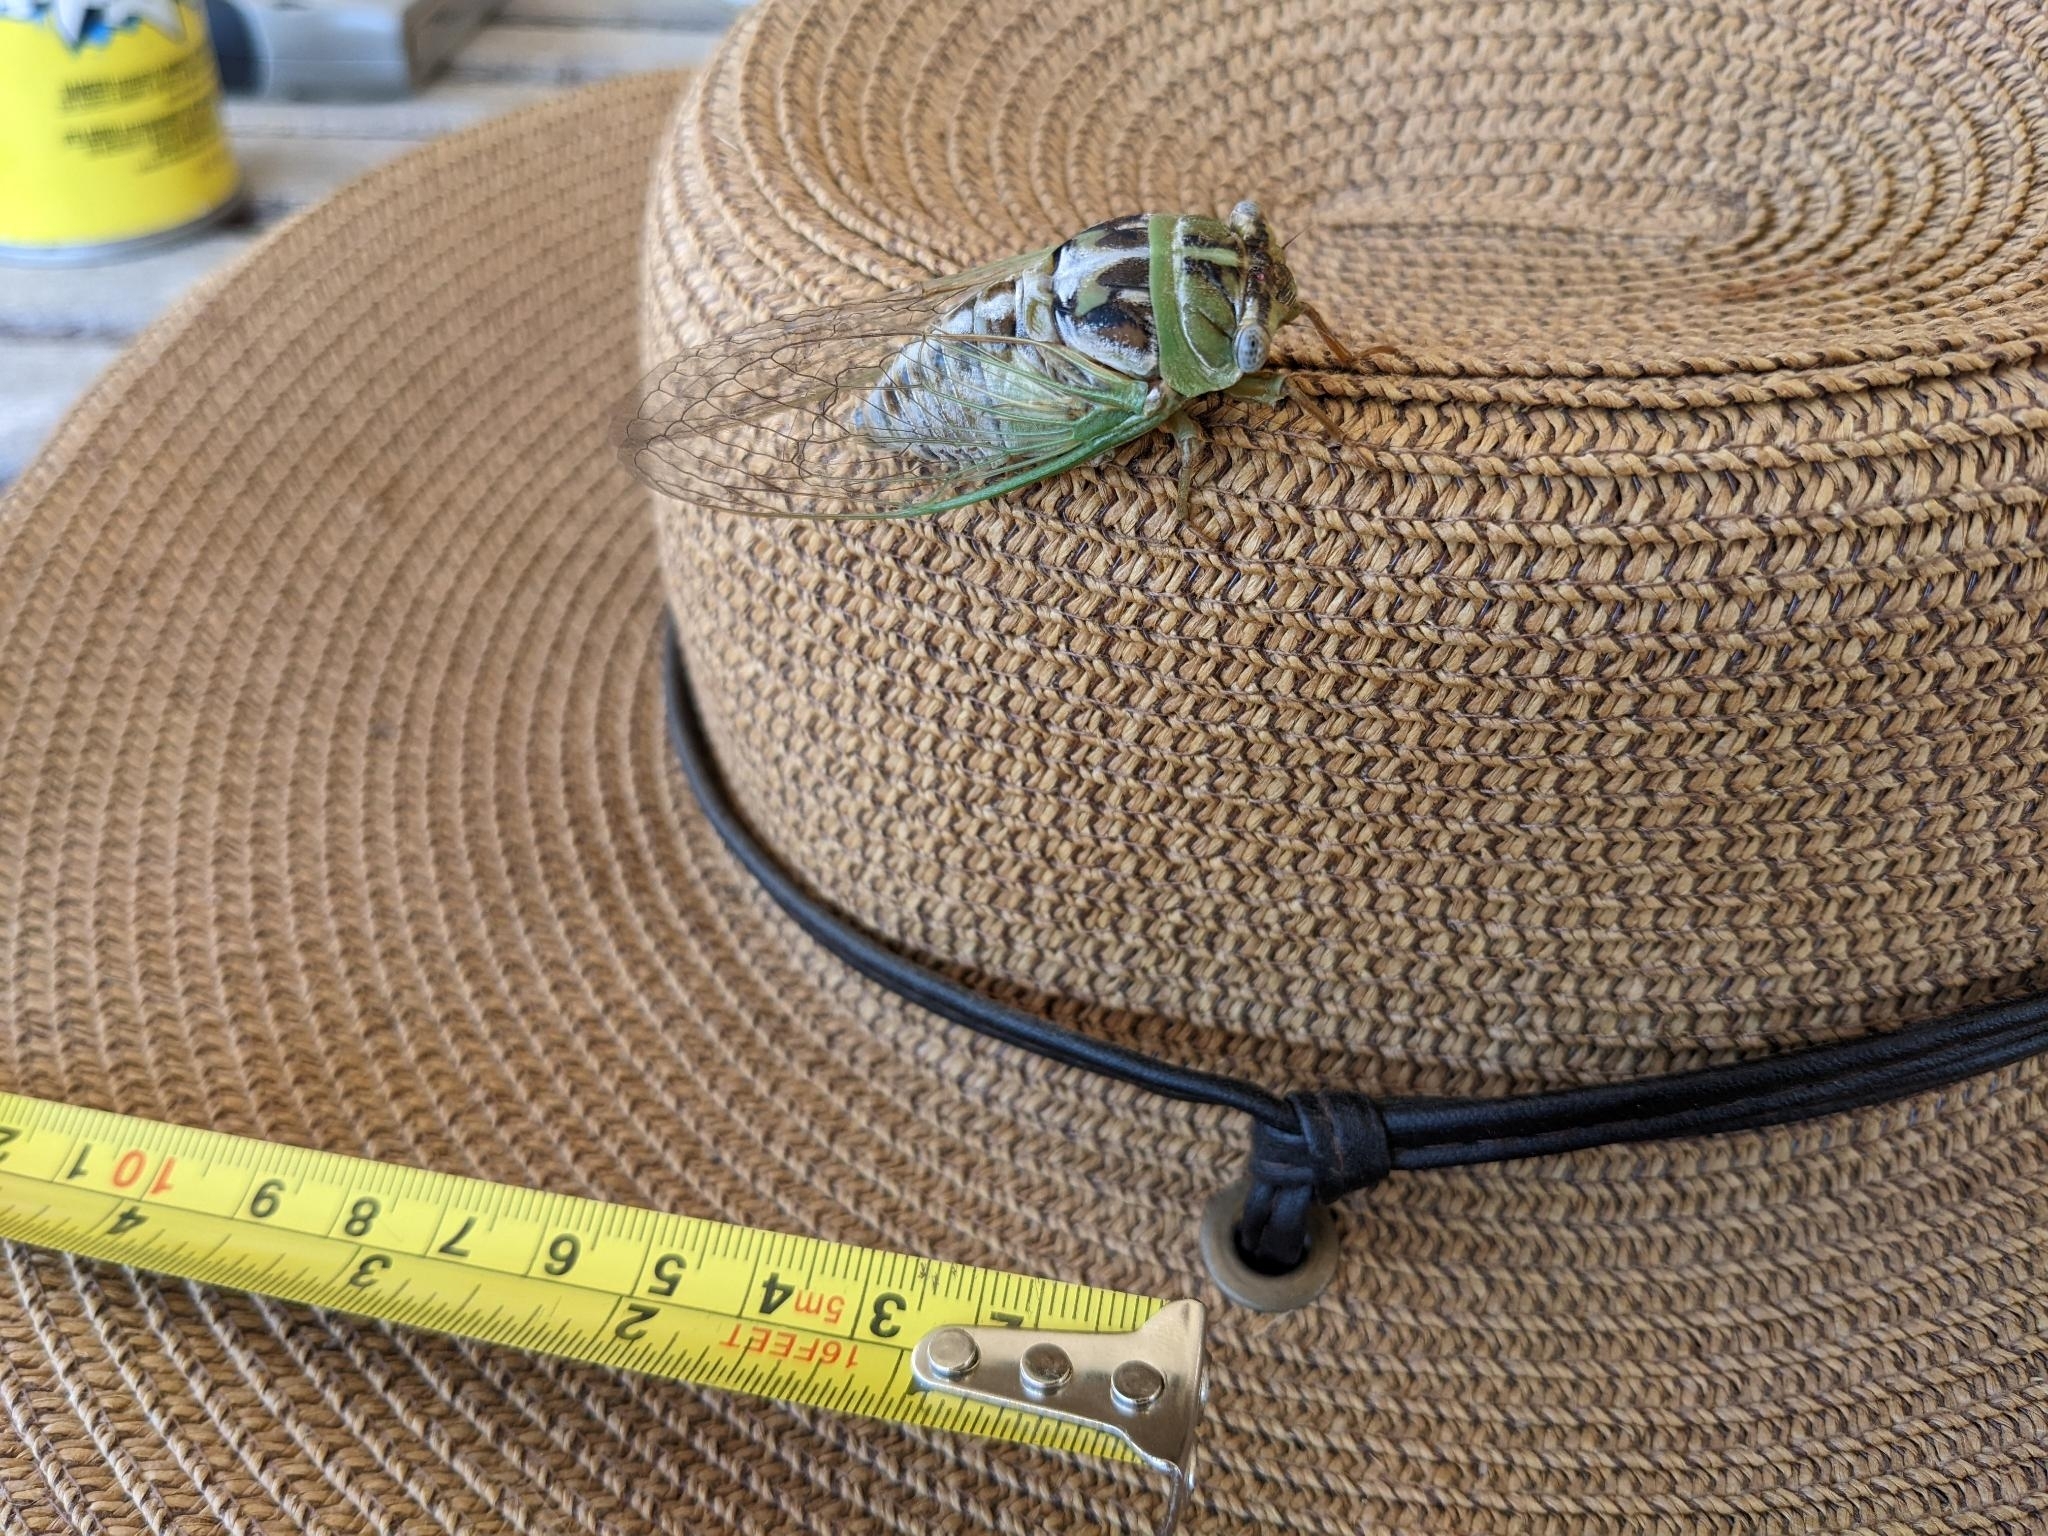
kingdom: Animalia
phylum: Arthropoda
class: Insecta
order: Hemiptera
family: Cicadidae
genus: Megatibicen
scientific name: Megatibicen dealbatus
